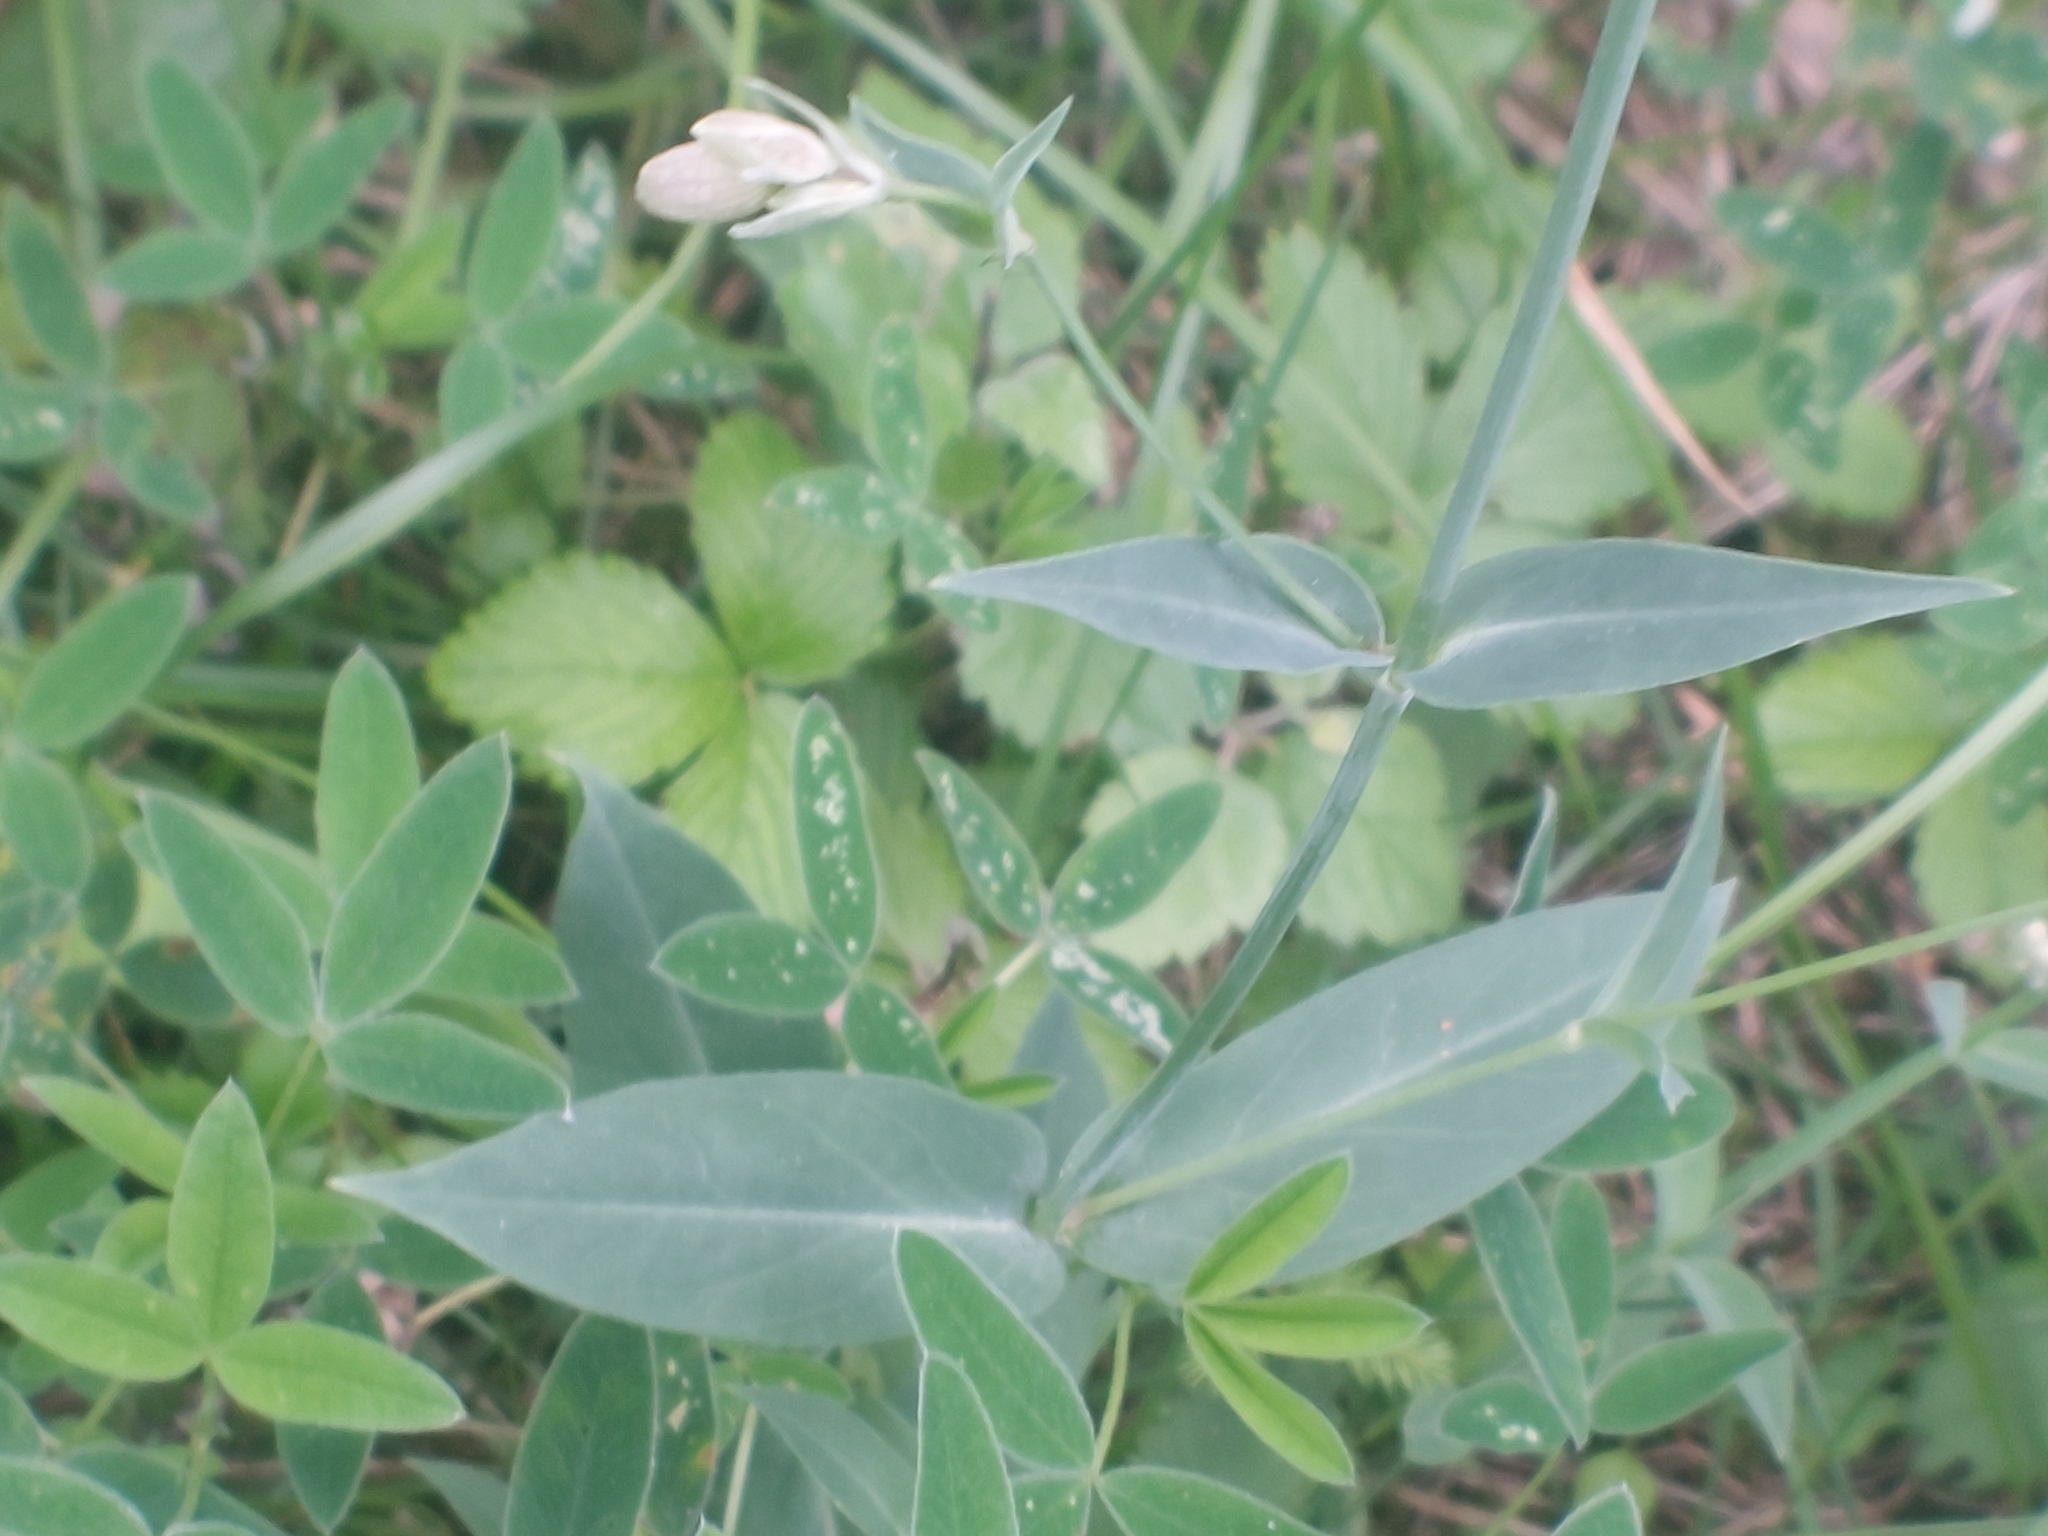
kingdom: Plantae
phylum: Tracheophyta
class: Magnoliopsida
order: Caryophyllales
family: Caryophyllaceae
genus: Silene
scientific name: Silene vulgaris
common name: Bladder campion
